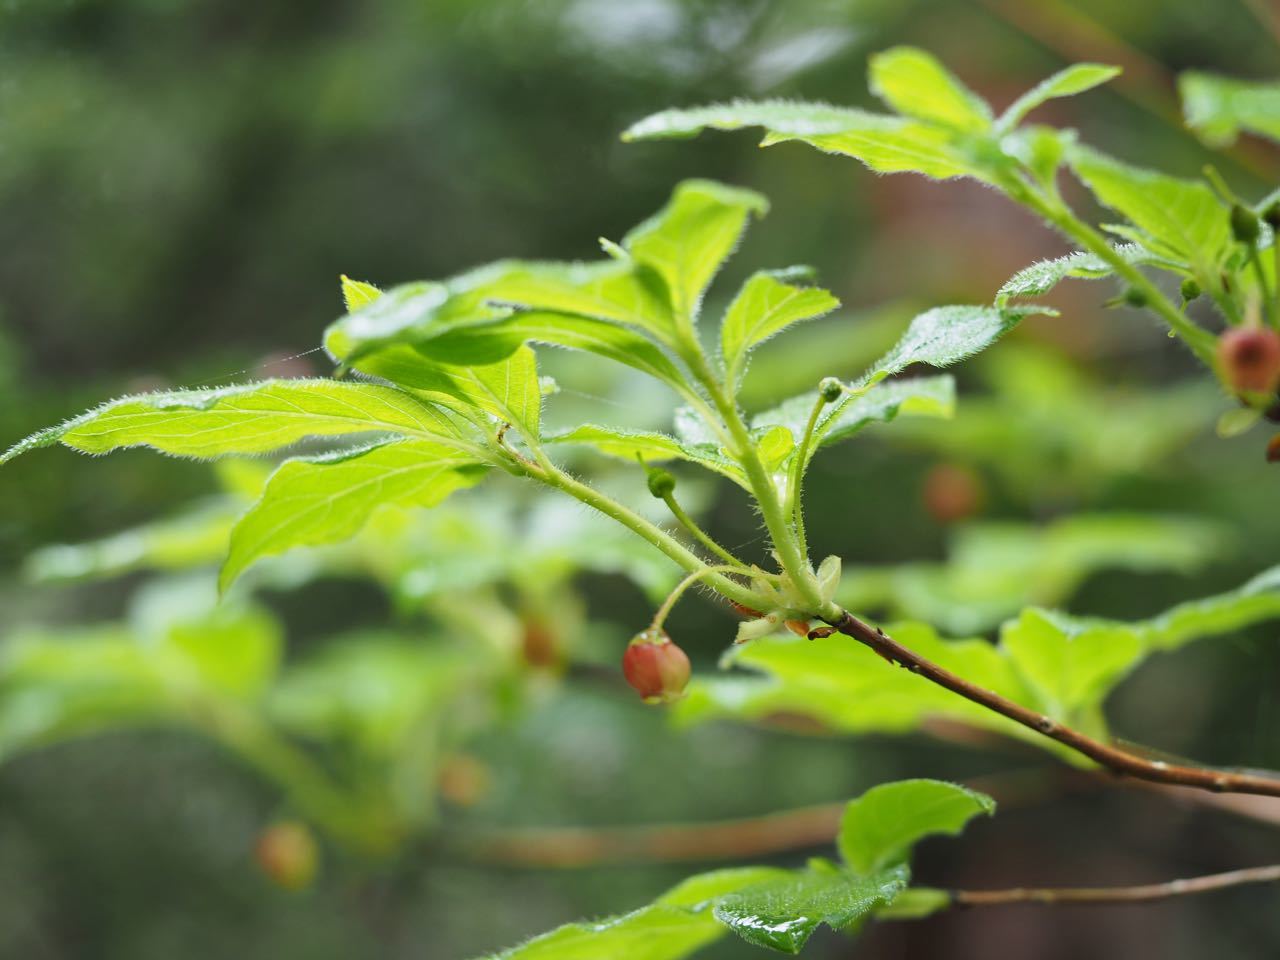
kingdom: Plantae
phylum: Tracheophyta
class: Magnoliopsida
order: Ericales
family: Ericaceae
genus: Rhododendron
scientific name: Rhododendron pentandrum
